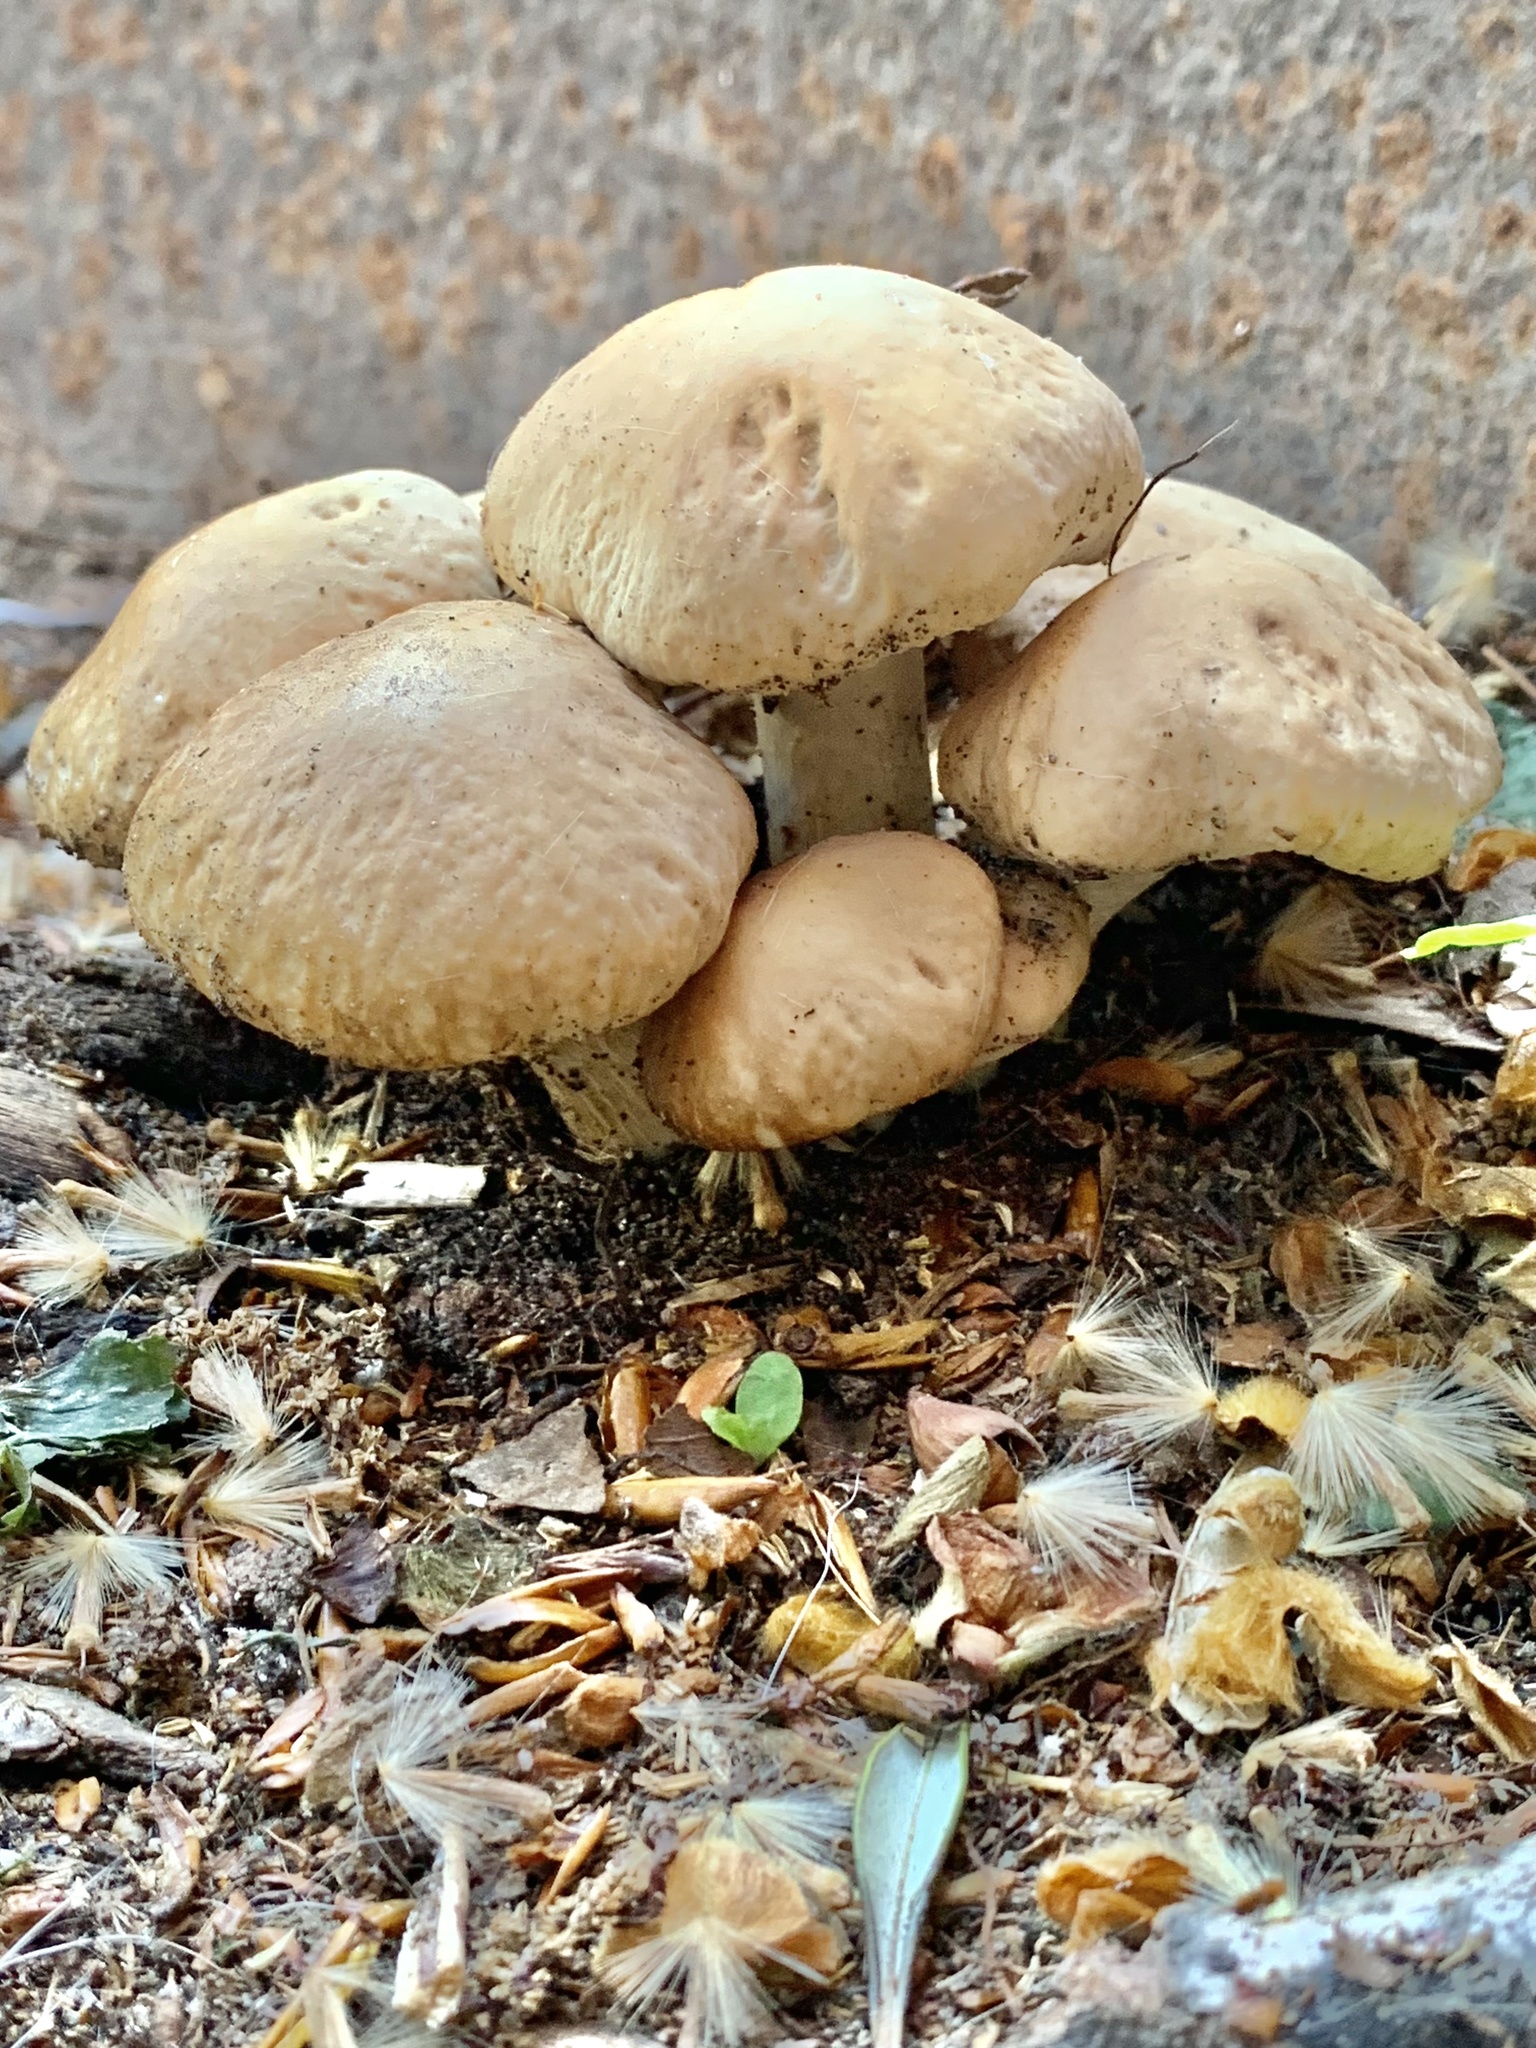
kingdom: Fungi
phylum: Basidiomycota
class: Agaricomycetes
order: Agaricales
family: Tubariaceae
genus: Cyclocybe
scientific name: Cyclocybe cylindracea
